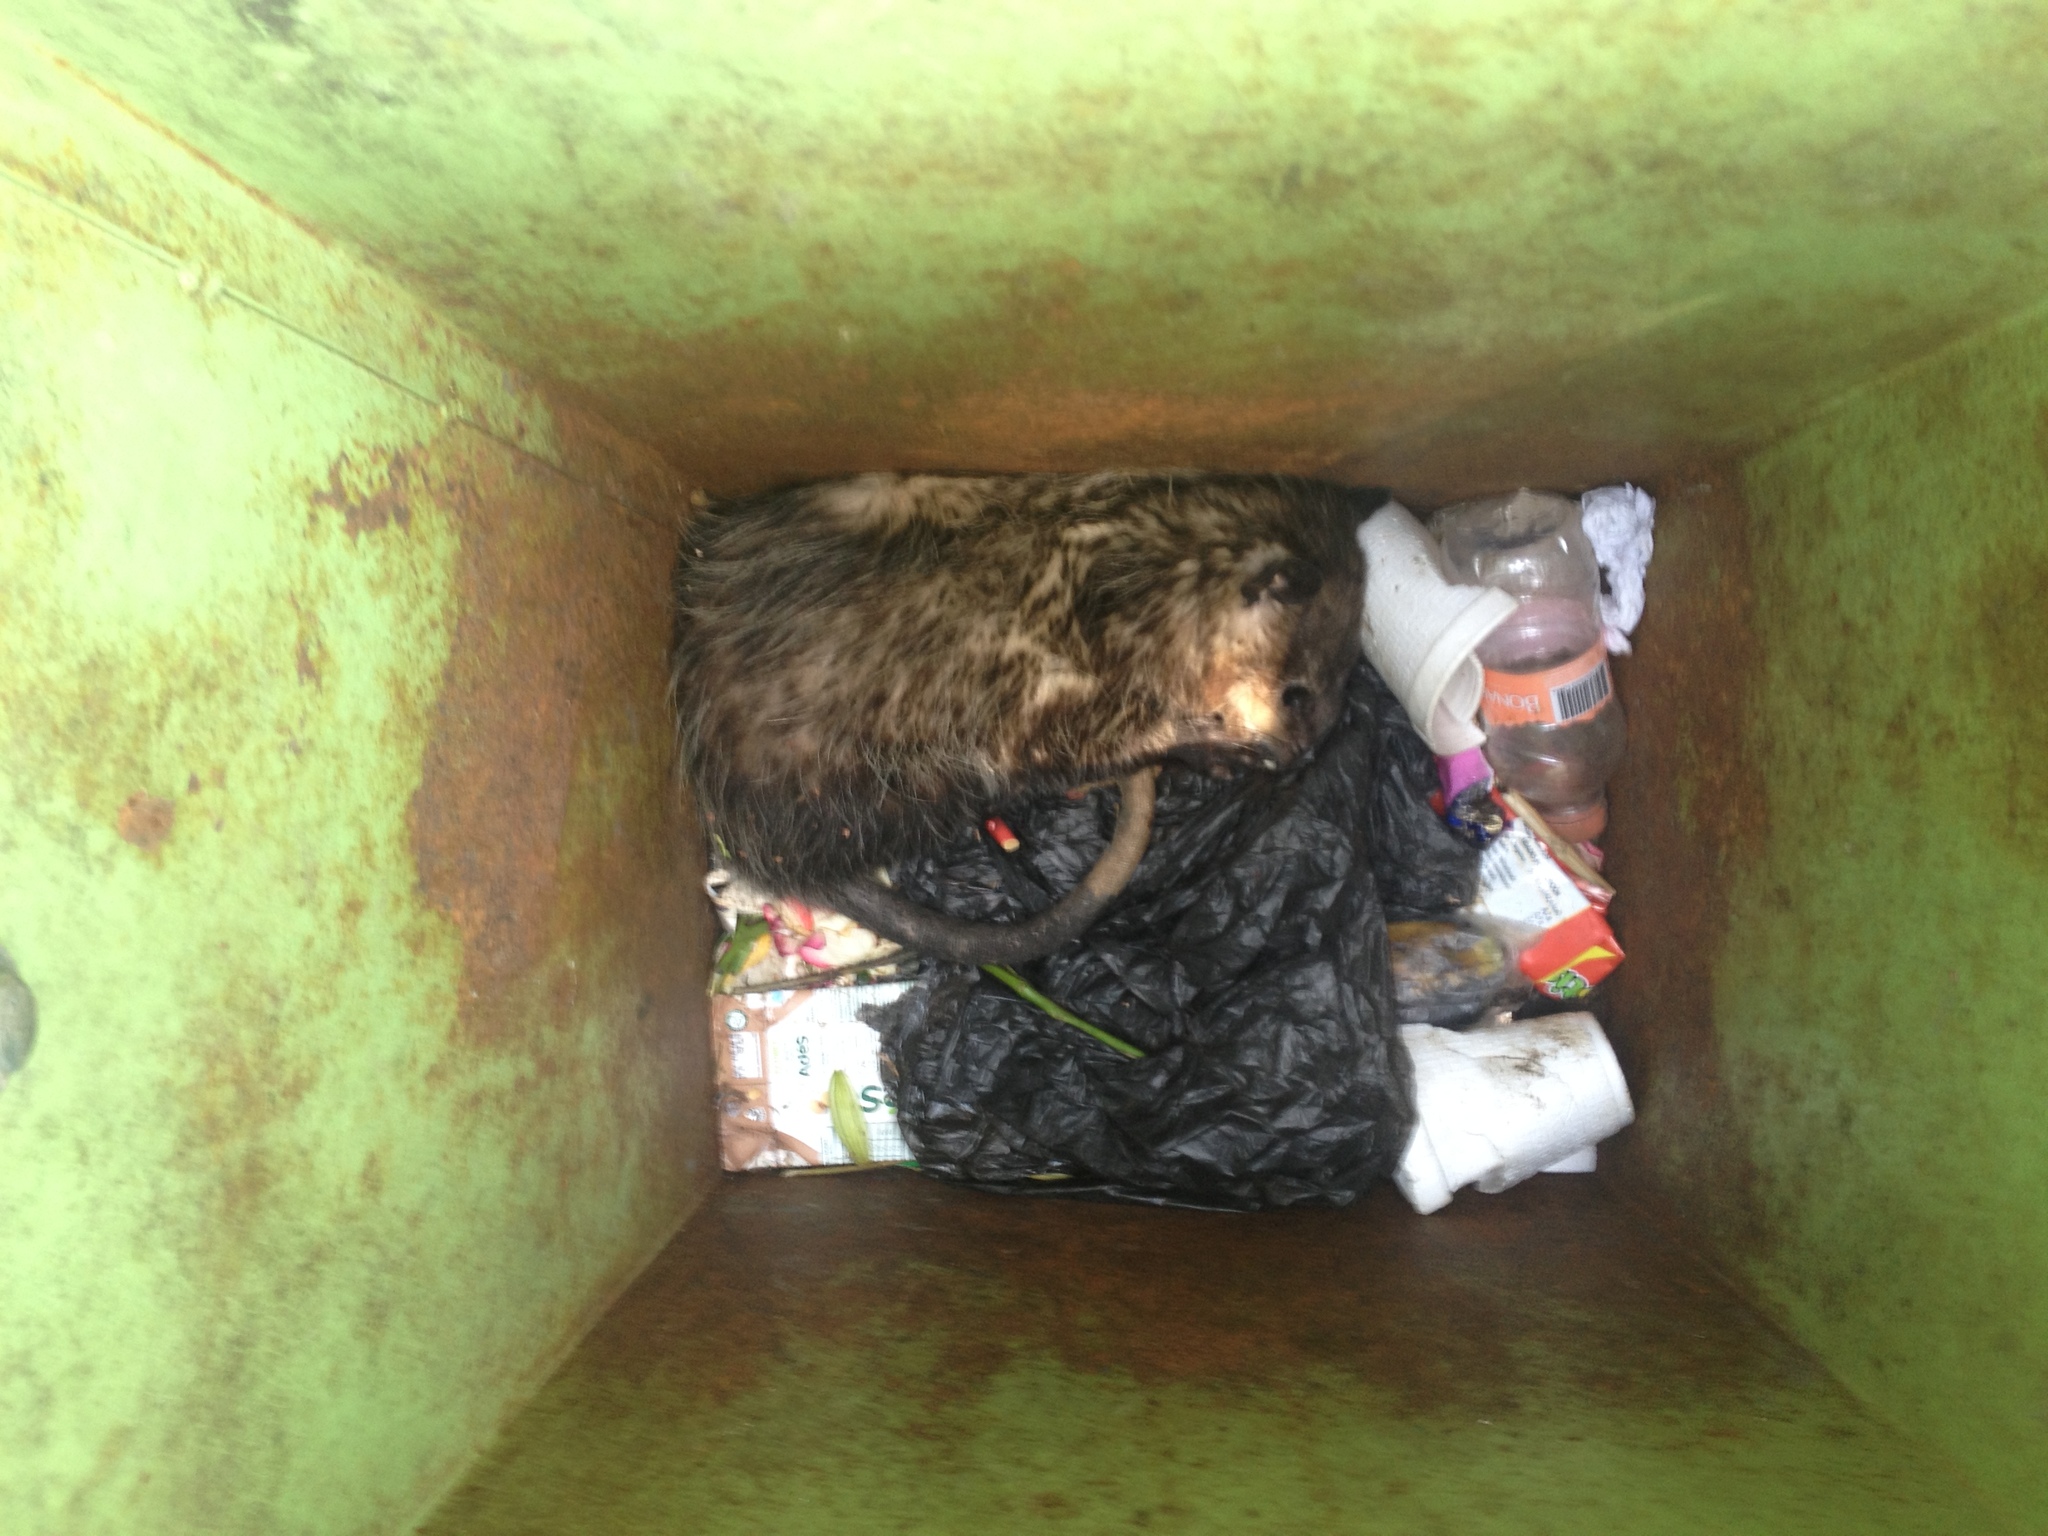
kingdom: Animalia
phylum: Chordata
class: Mammalia
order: Didelphimorphia
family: Didelphidae
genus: Didelphis
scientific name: Didelphis virginiana
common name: Virginia opossum
